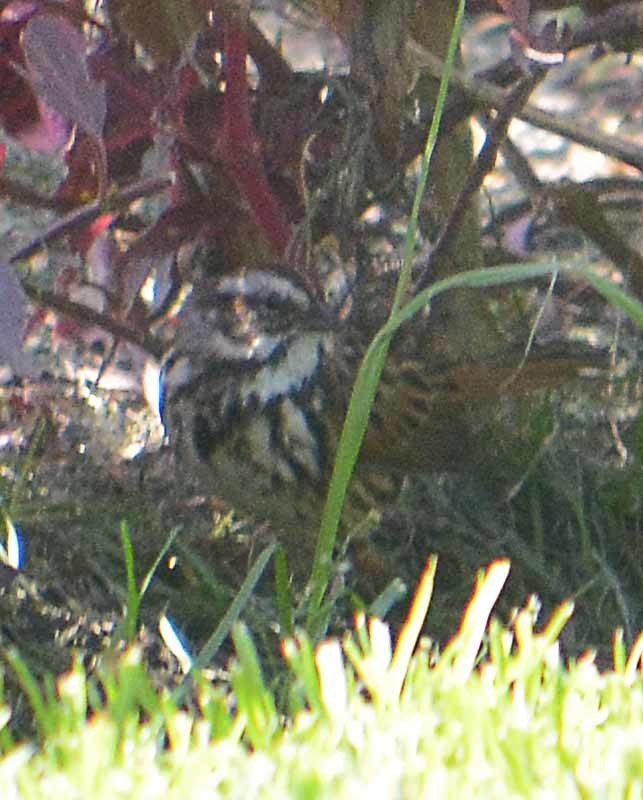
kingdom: Animalia
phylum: Chordata
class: Aves
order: Passeriformes
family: Passerellidae
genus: Melospiza
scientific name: Melospiza melodia
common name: Song sparrow
